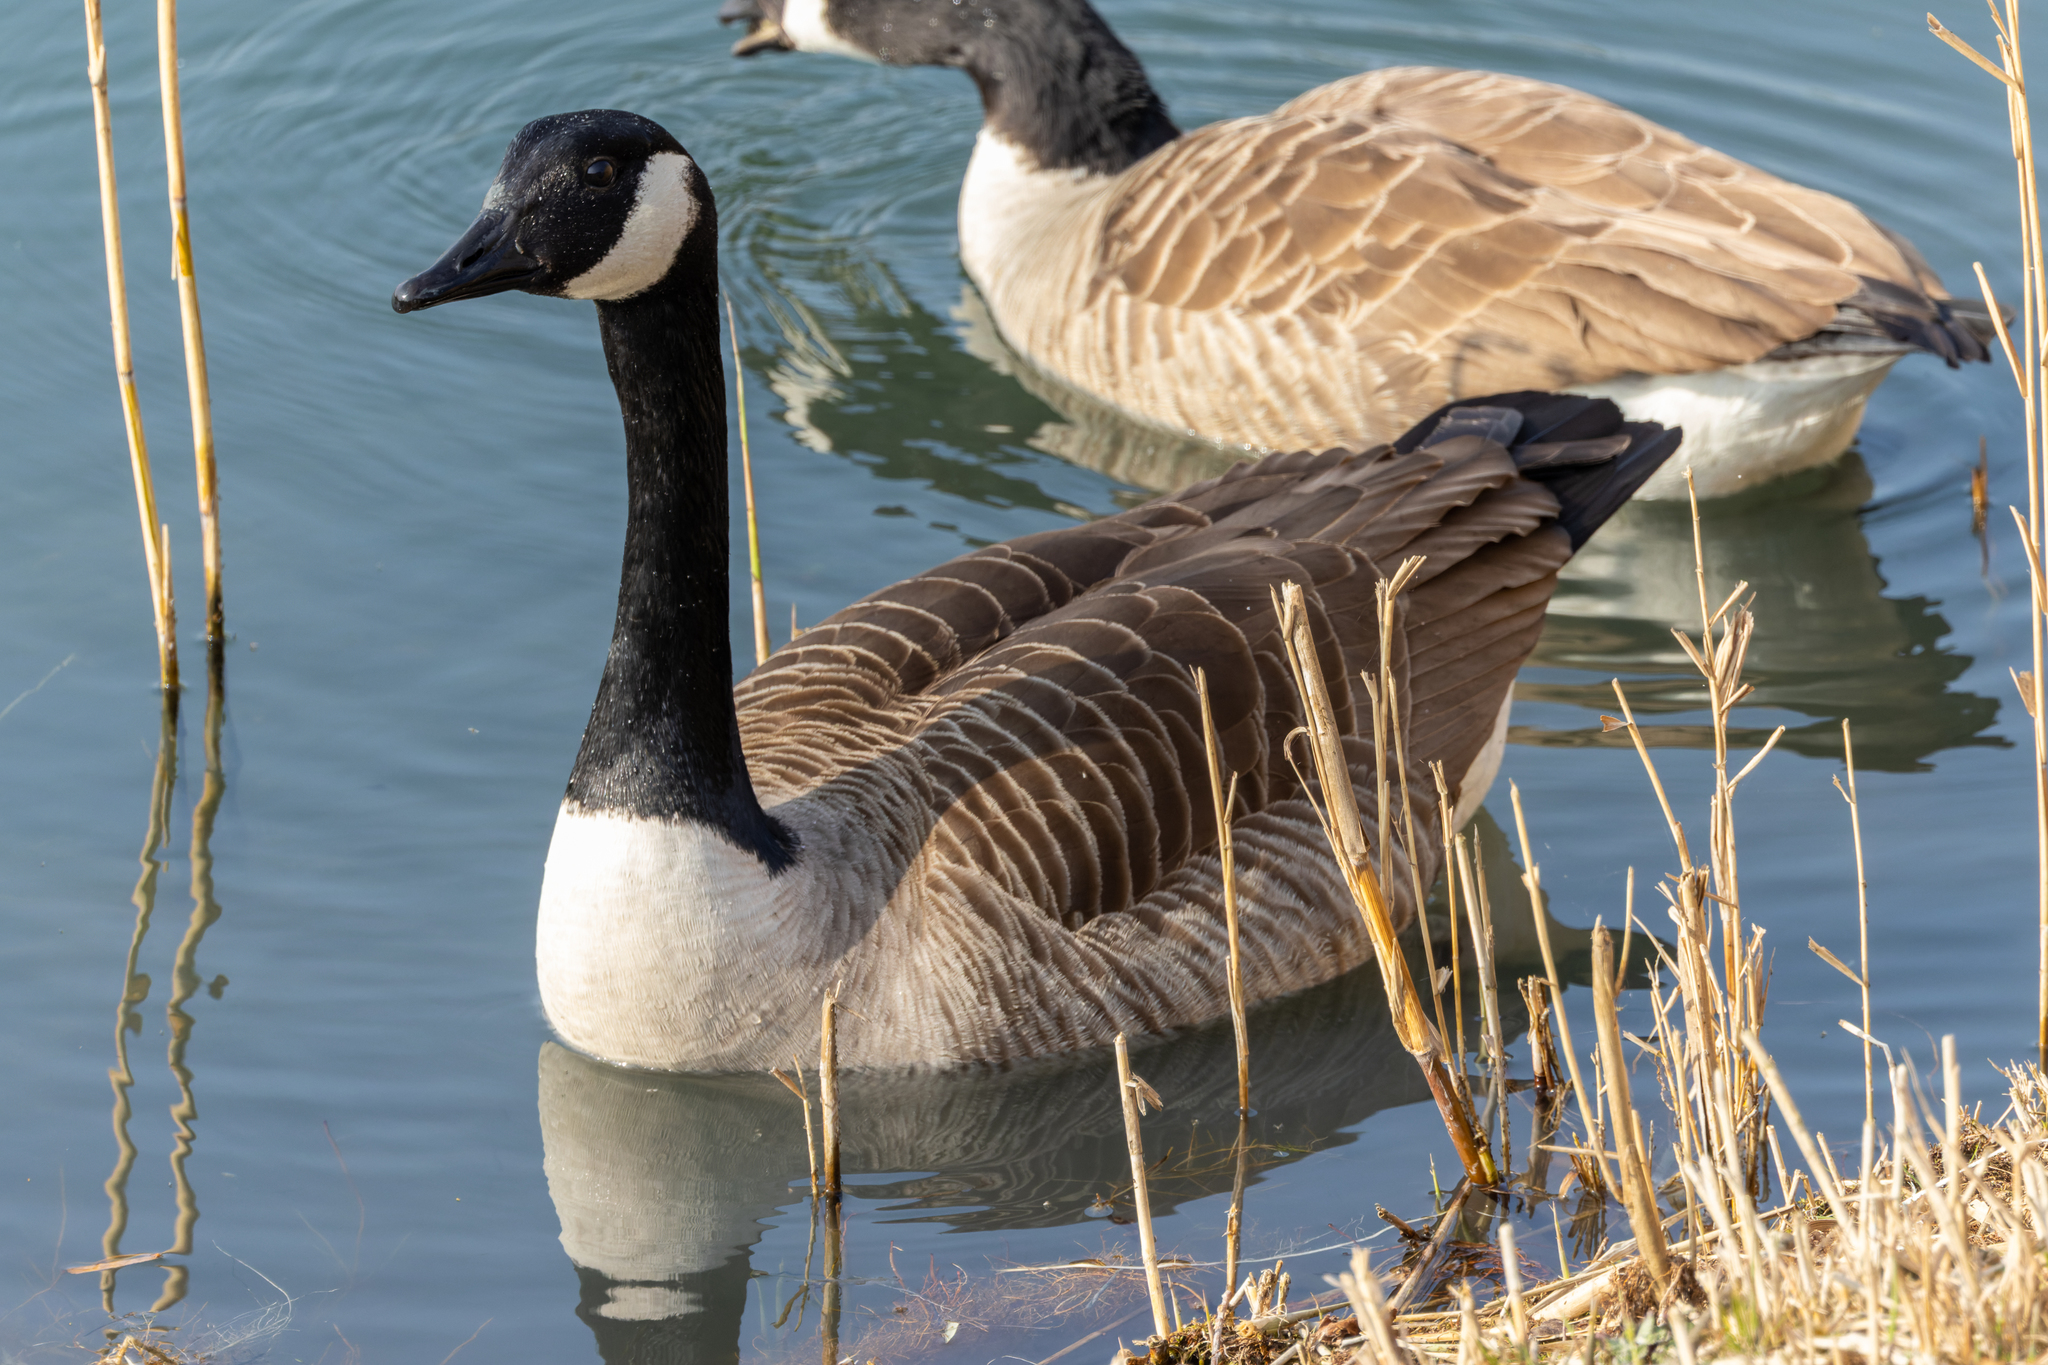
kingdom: Animalia
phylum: Chordata
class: Aves
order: Anseriformes
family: Anatidae
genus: Branta
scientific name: Branta canadensis
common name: Canada goose
